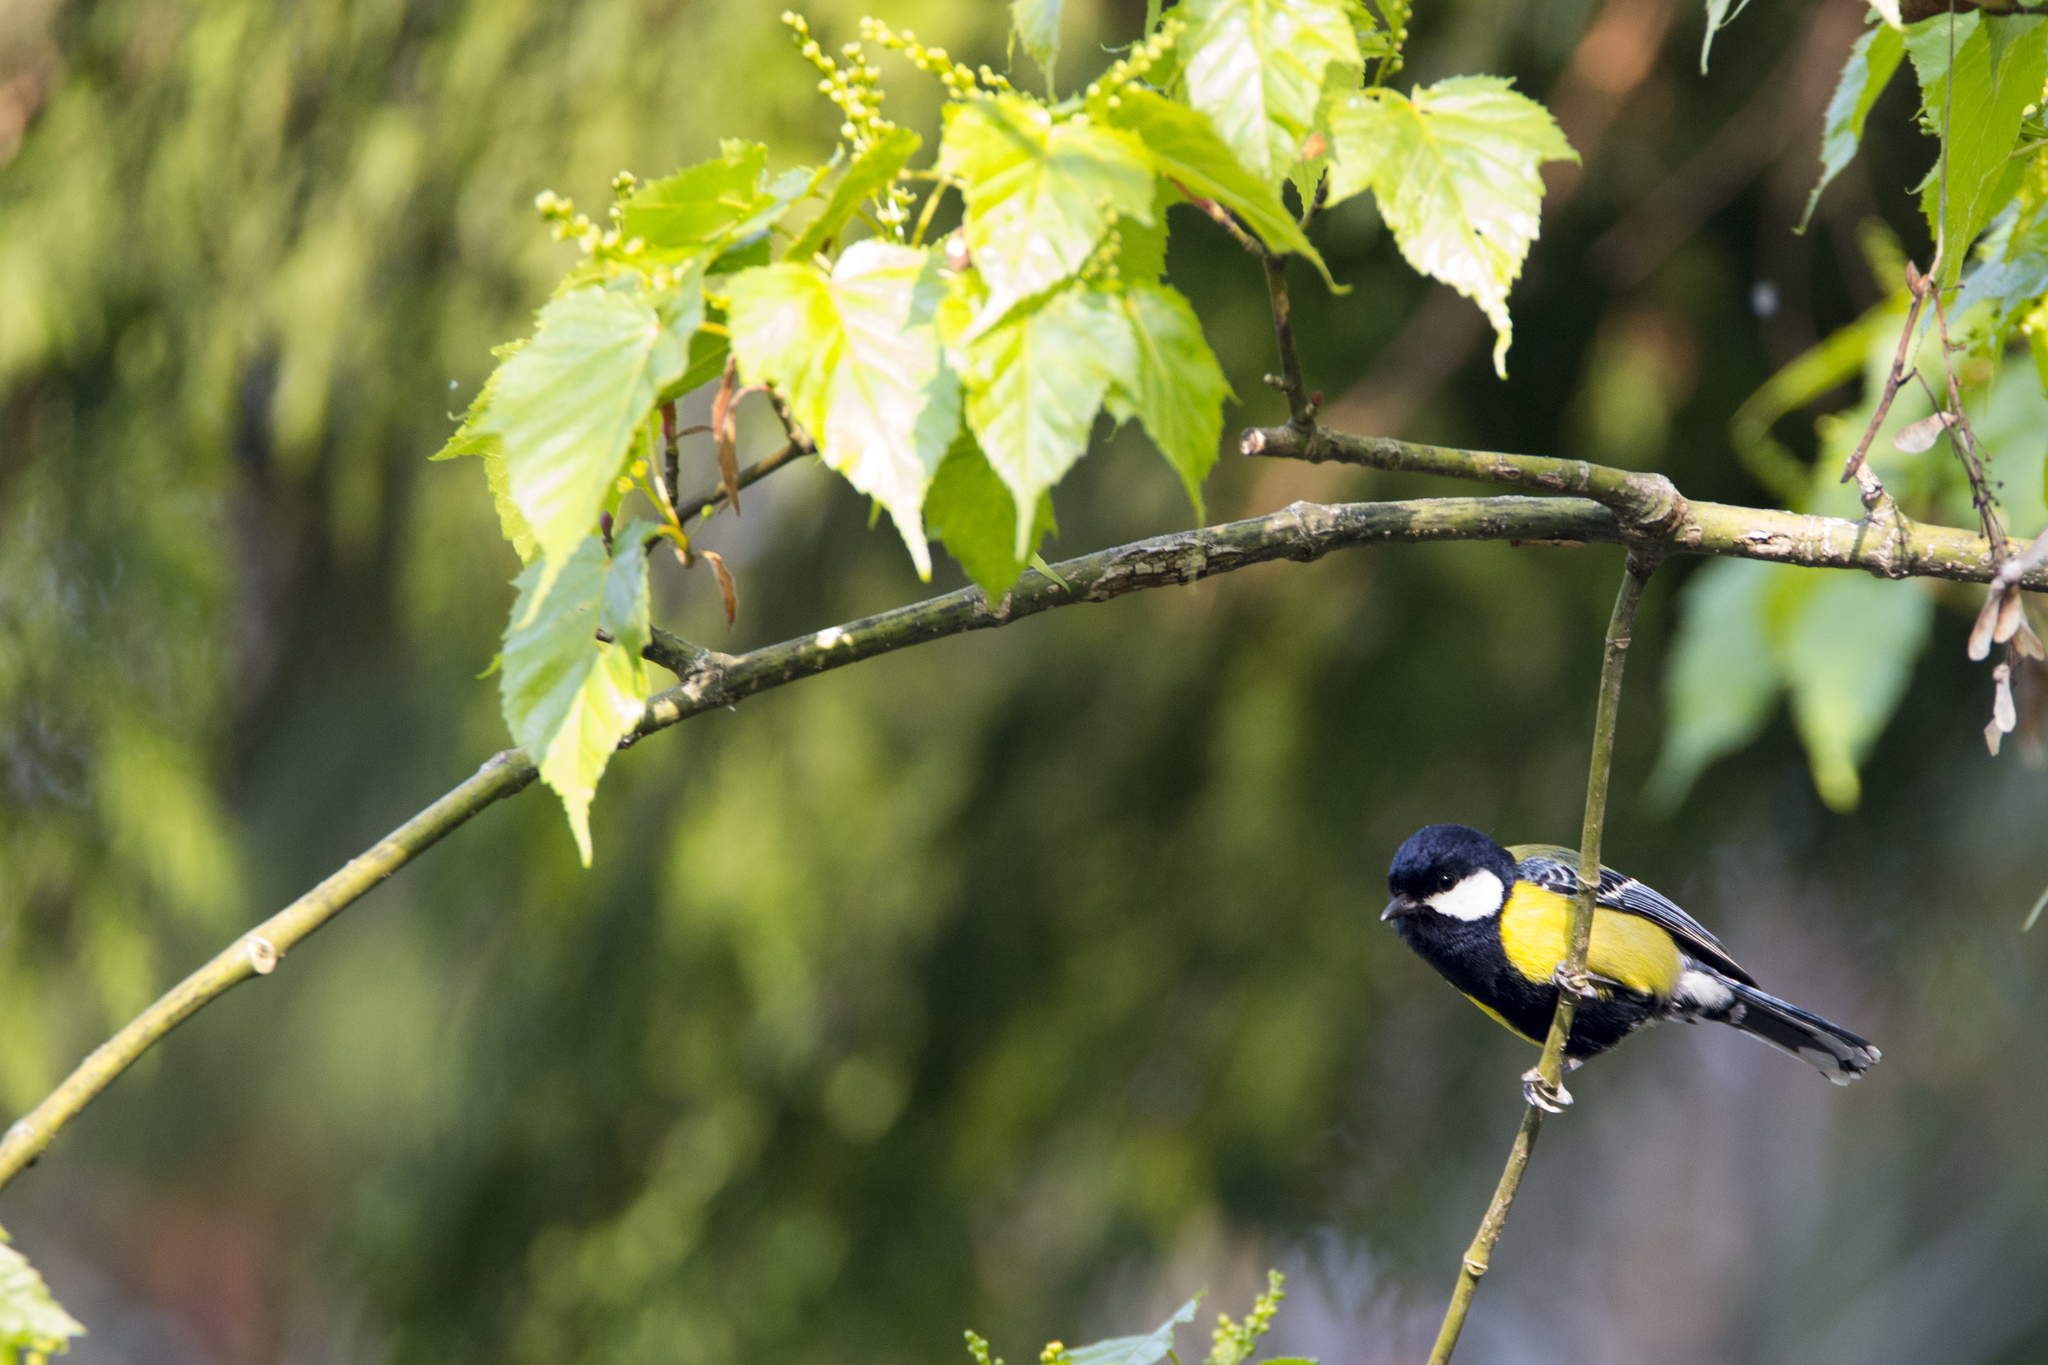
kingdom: Animalia
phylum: Chordata
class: Aves
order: Passeriformes
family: Paridae
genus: Parus
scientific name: Parus monticolus
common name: Green-backed tit
